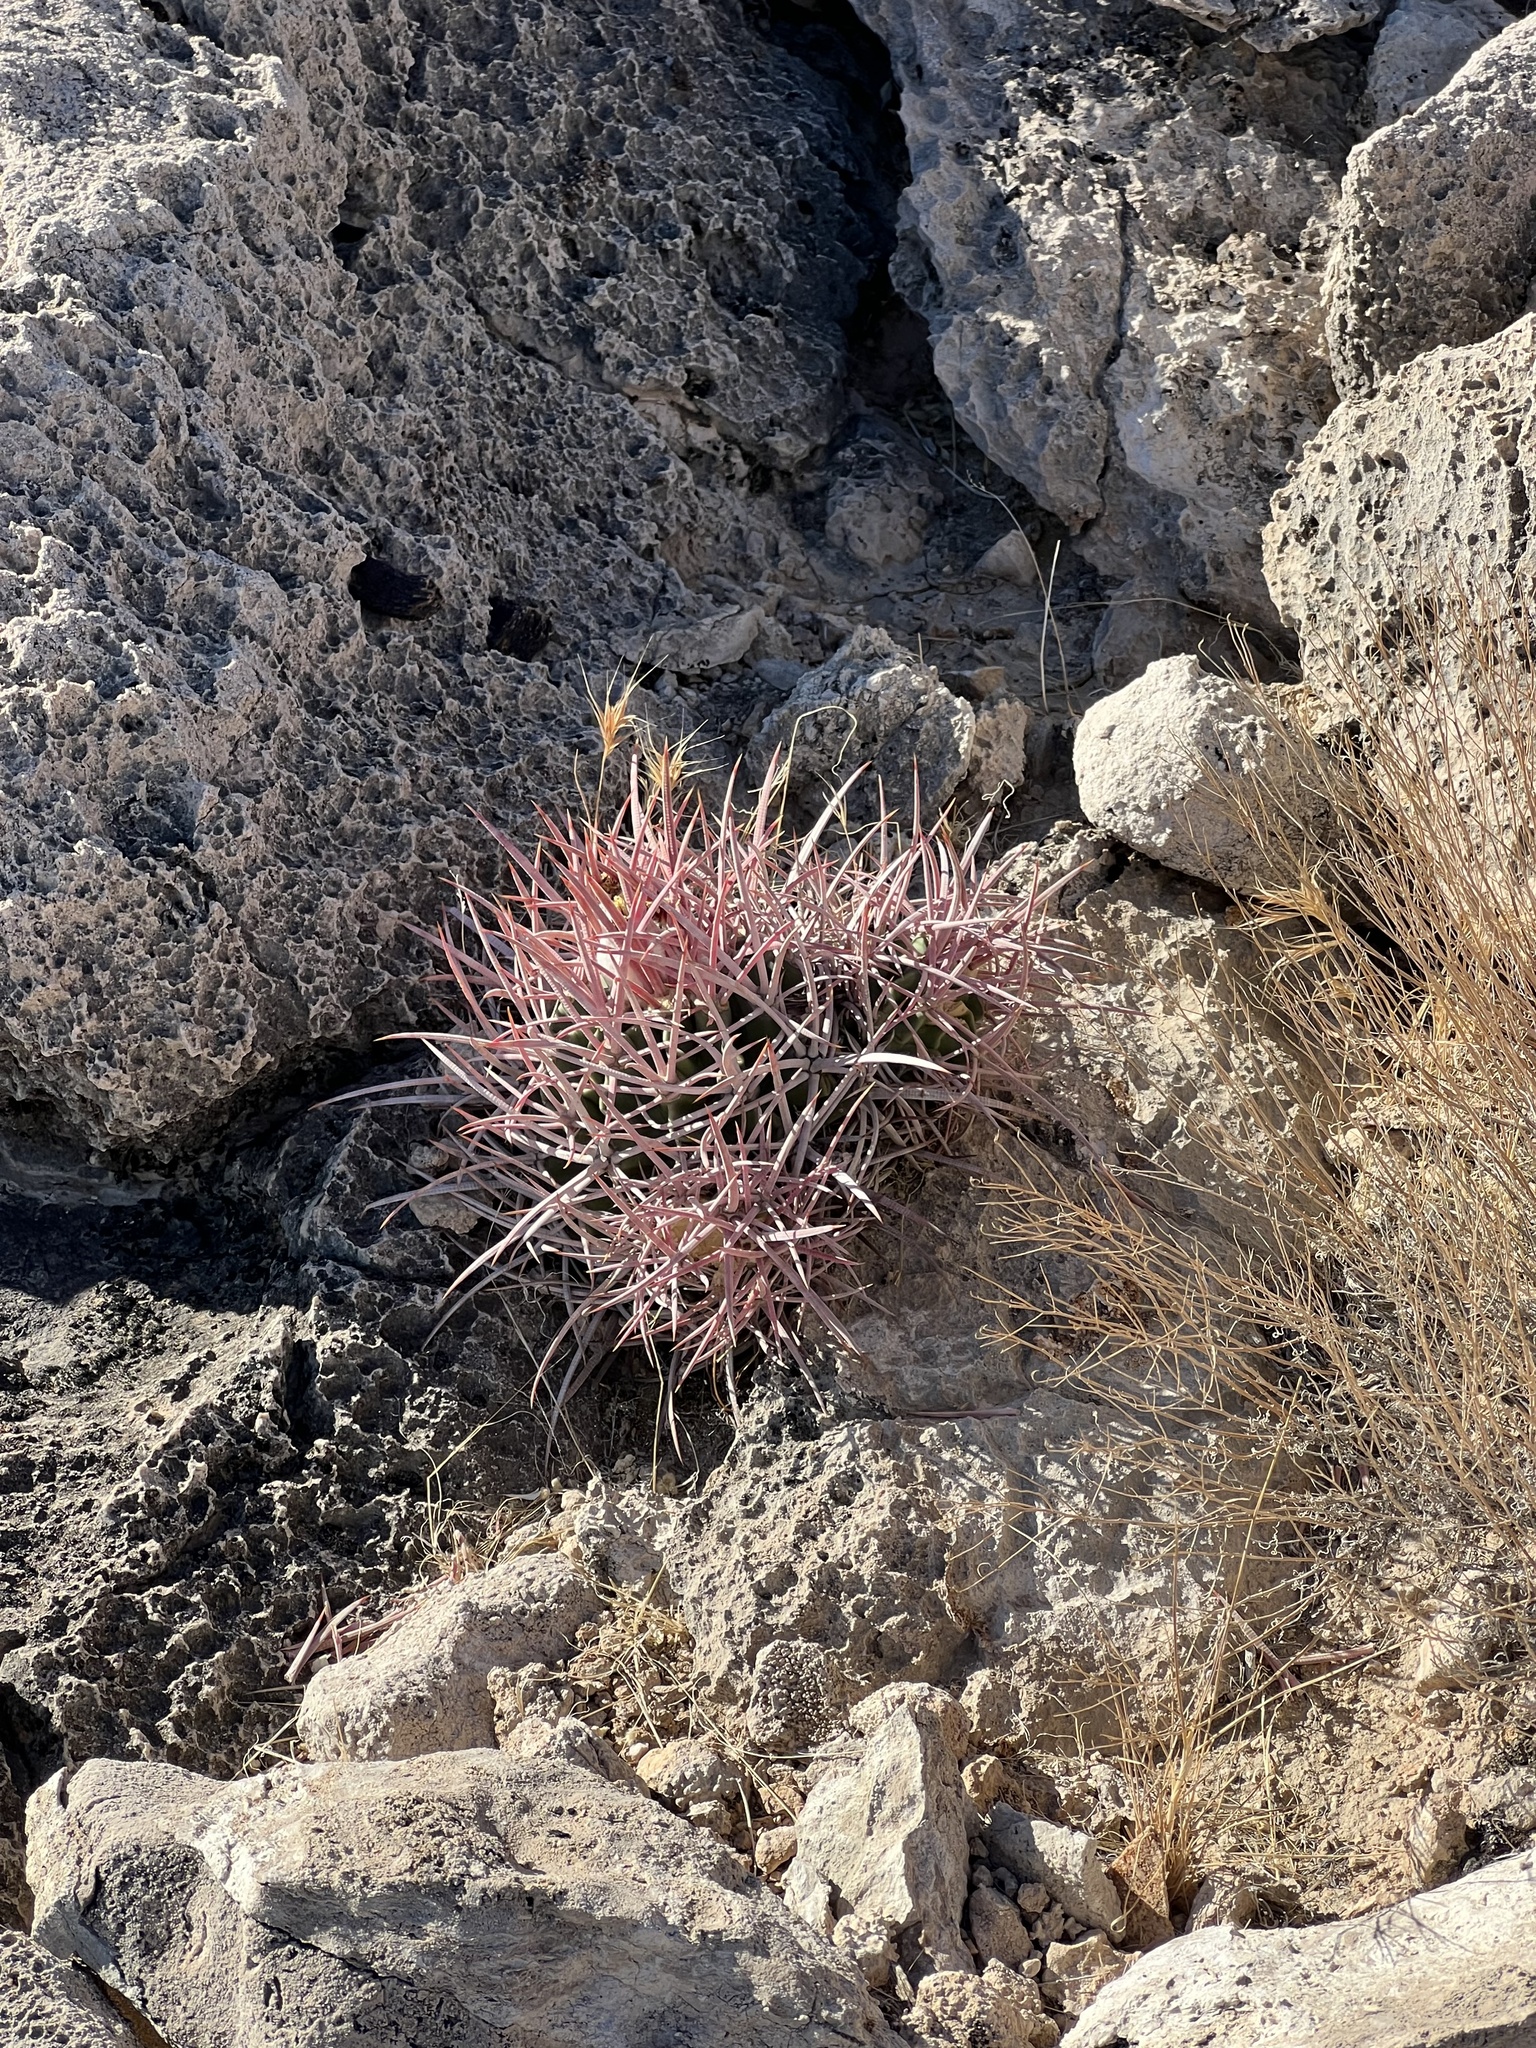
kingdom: Plantae
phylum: Tracheophyta
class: Magnoliopsida
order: Caryophyllales
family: Cactaceae
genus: Echinocactus
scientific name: Echinocactus polycephalus
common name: Cottontop cactus
